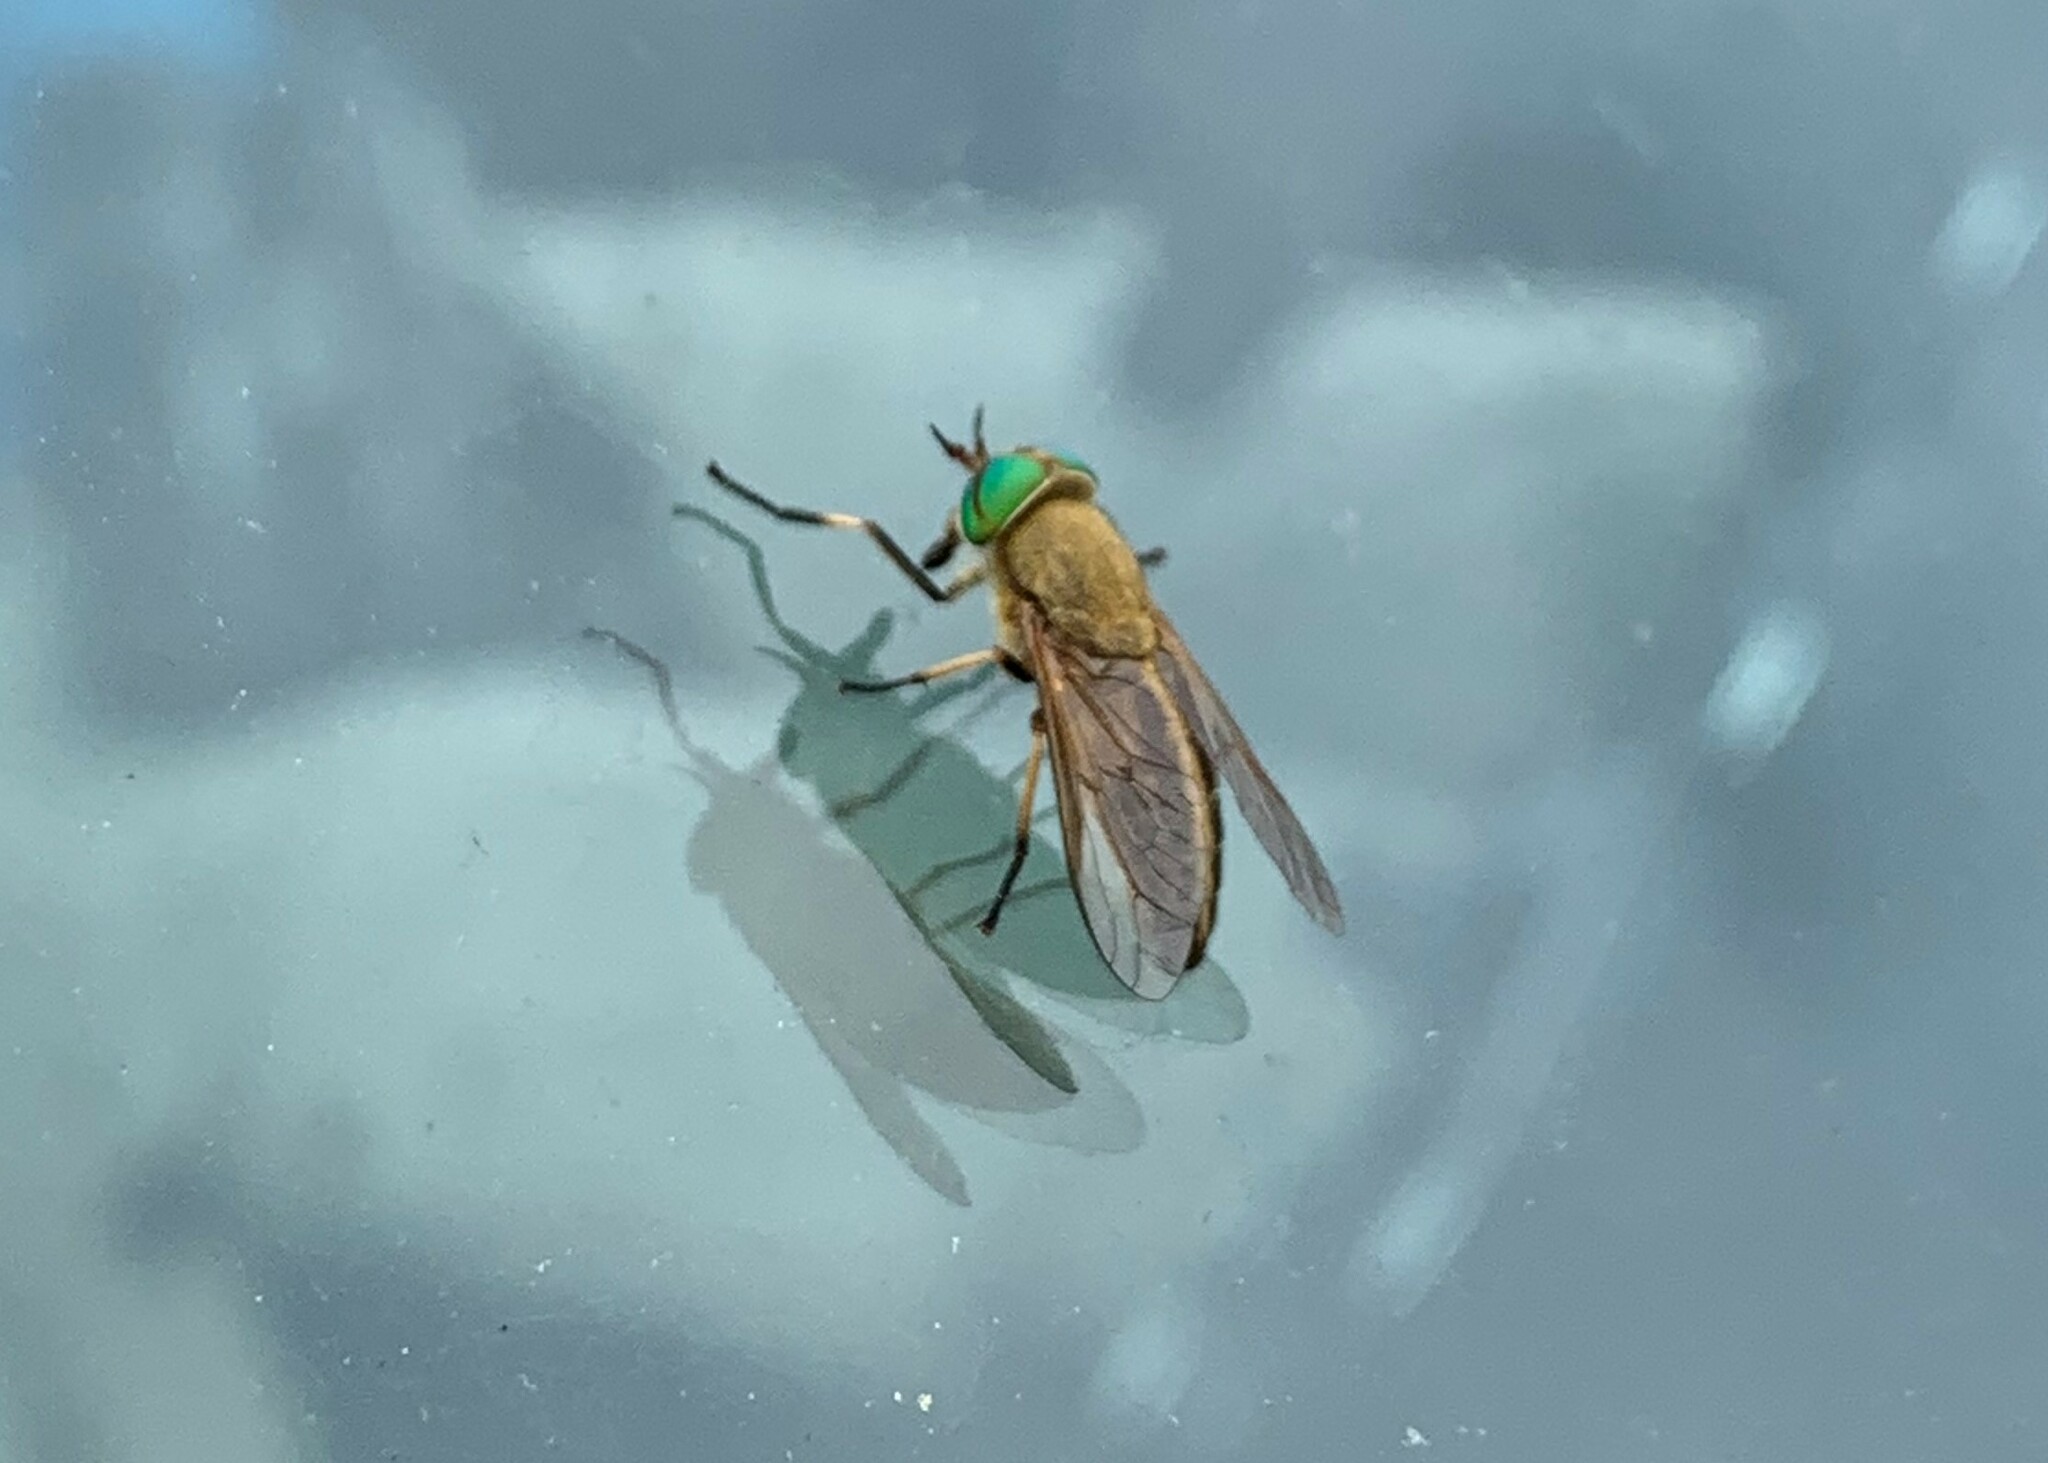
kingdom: Animalia
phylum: Arthropoda
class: Insecta
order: Diptera
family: Tabanidae
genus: Tabanus
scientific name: Tabanus quinquevittatus
